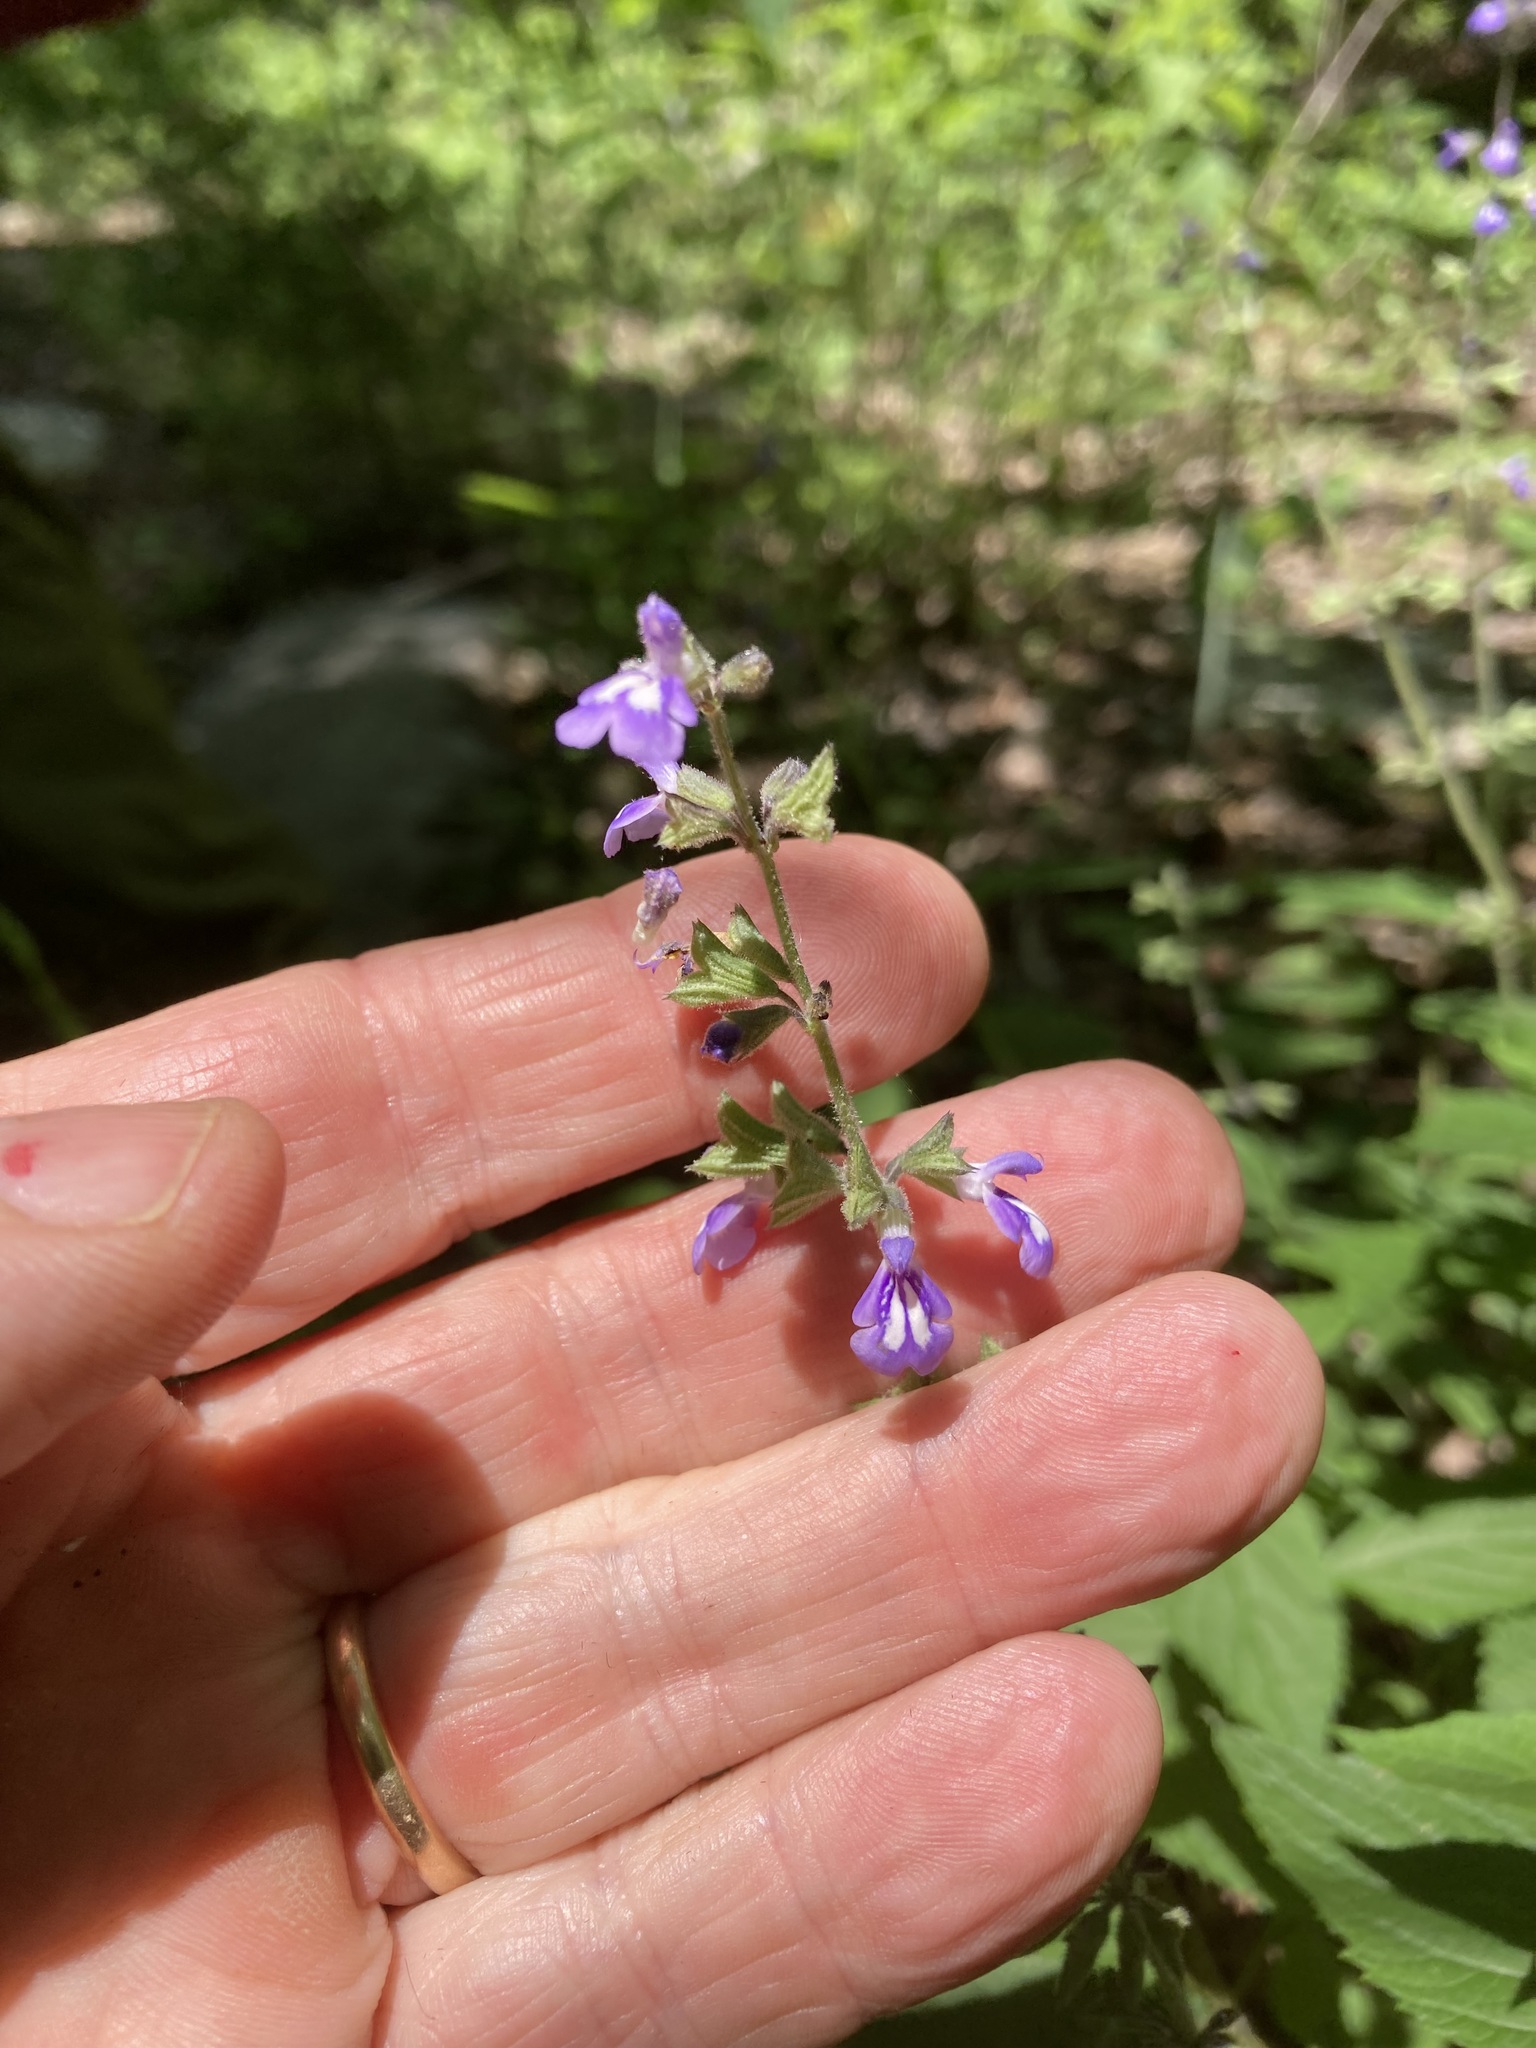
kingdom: Plantae
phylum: Tracheophyta
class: Magnoliopsida
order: Lamiales
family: Lamiaceae
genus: Salvia
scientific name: Salvia urticifolia
